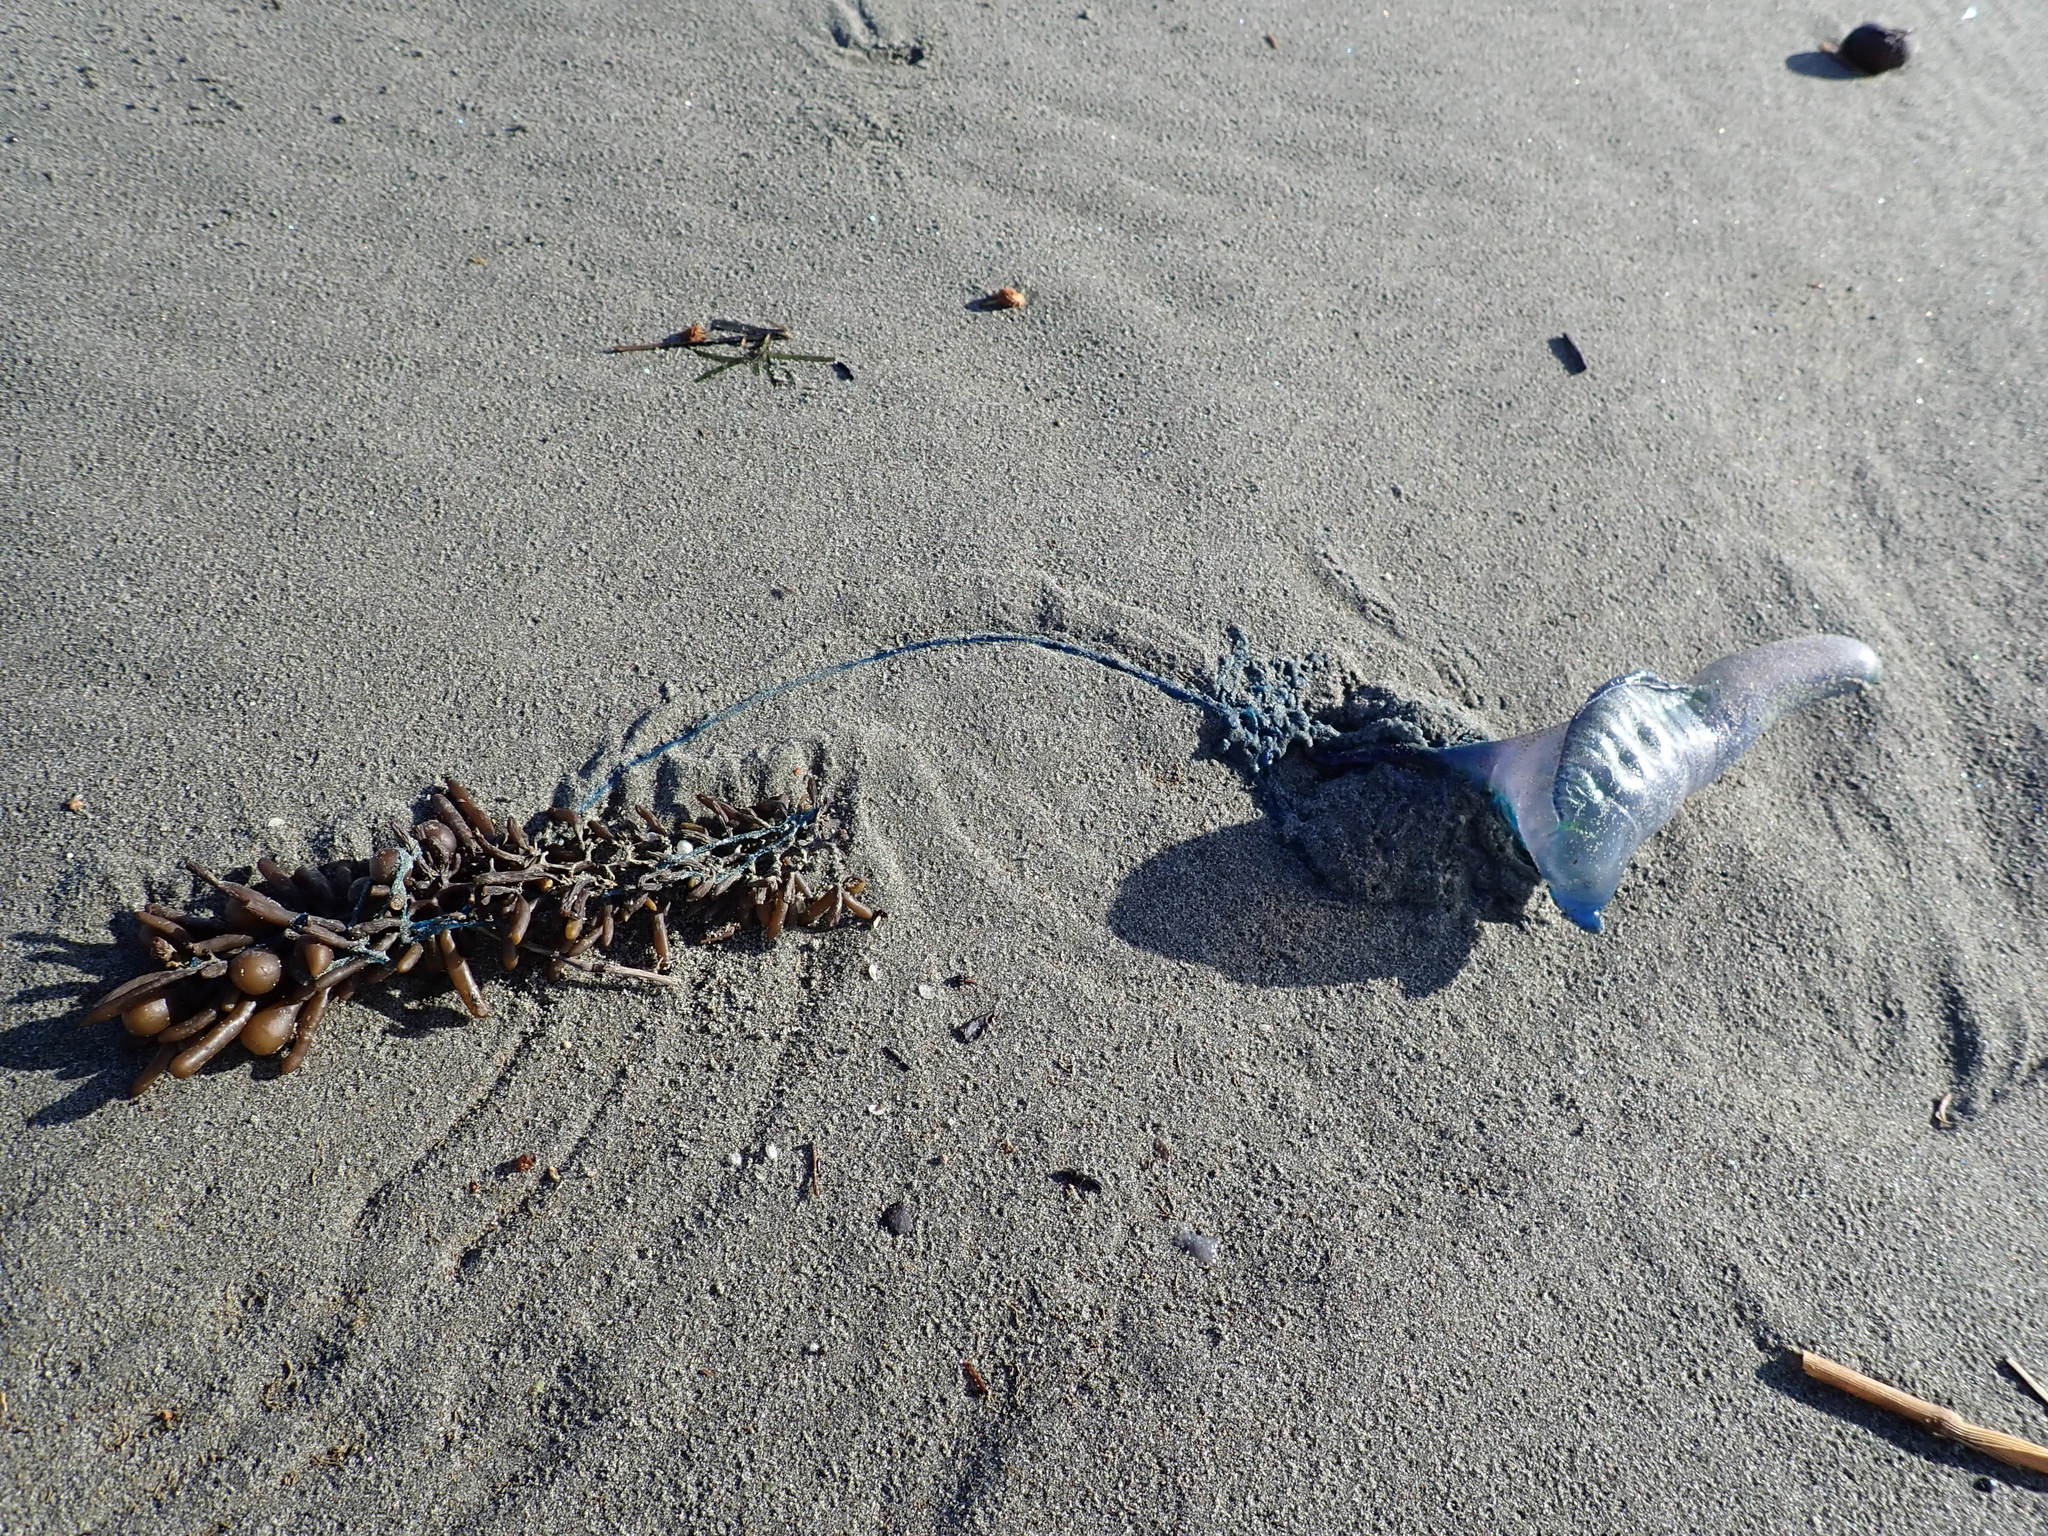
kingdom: Animalia
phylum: Cnidaria
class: Hydrozoa
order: Siphonophorae
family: Physaliidae
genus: Physalia
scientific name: Physalia physalis
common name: Portuguese man-of-war
